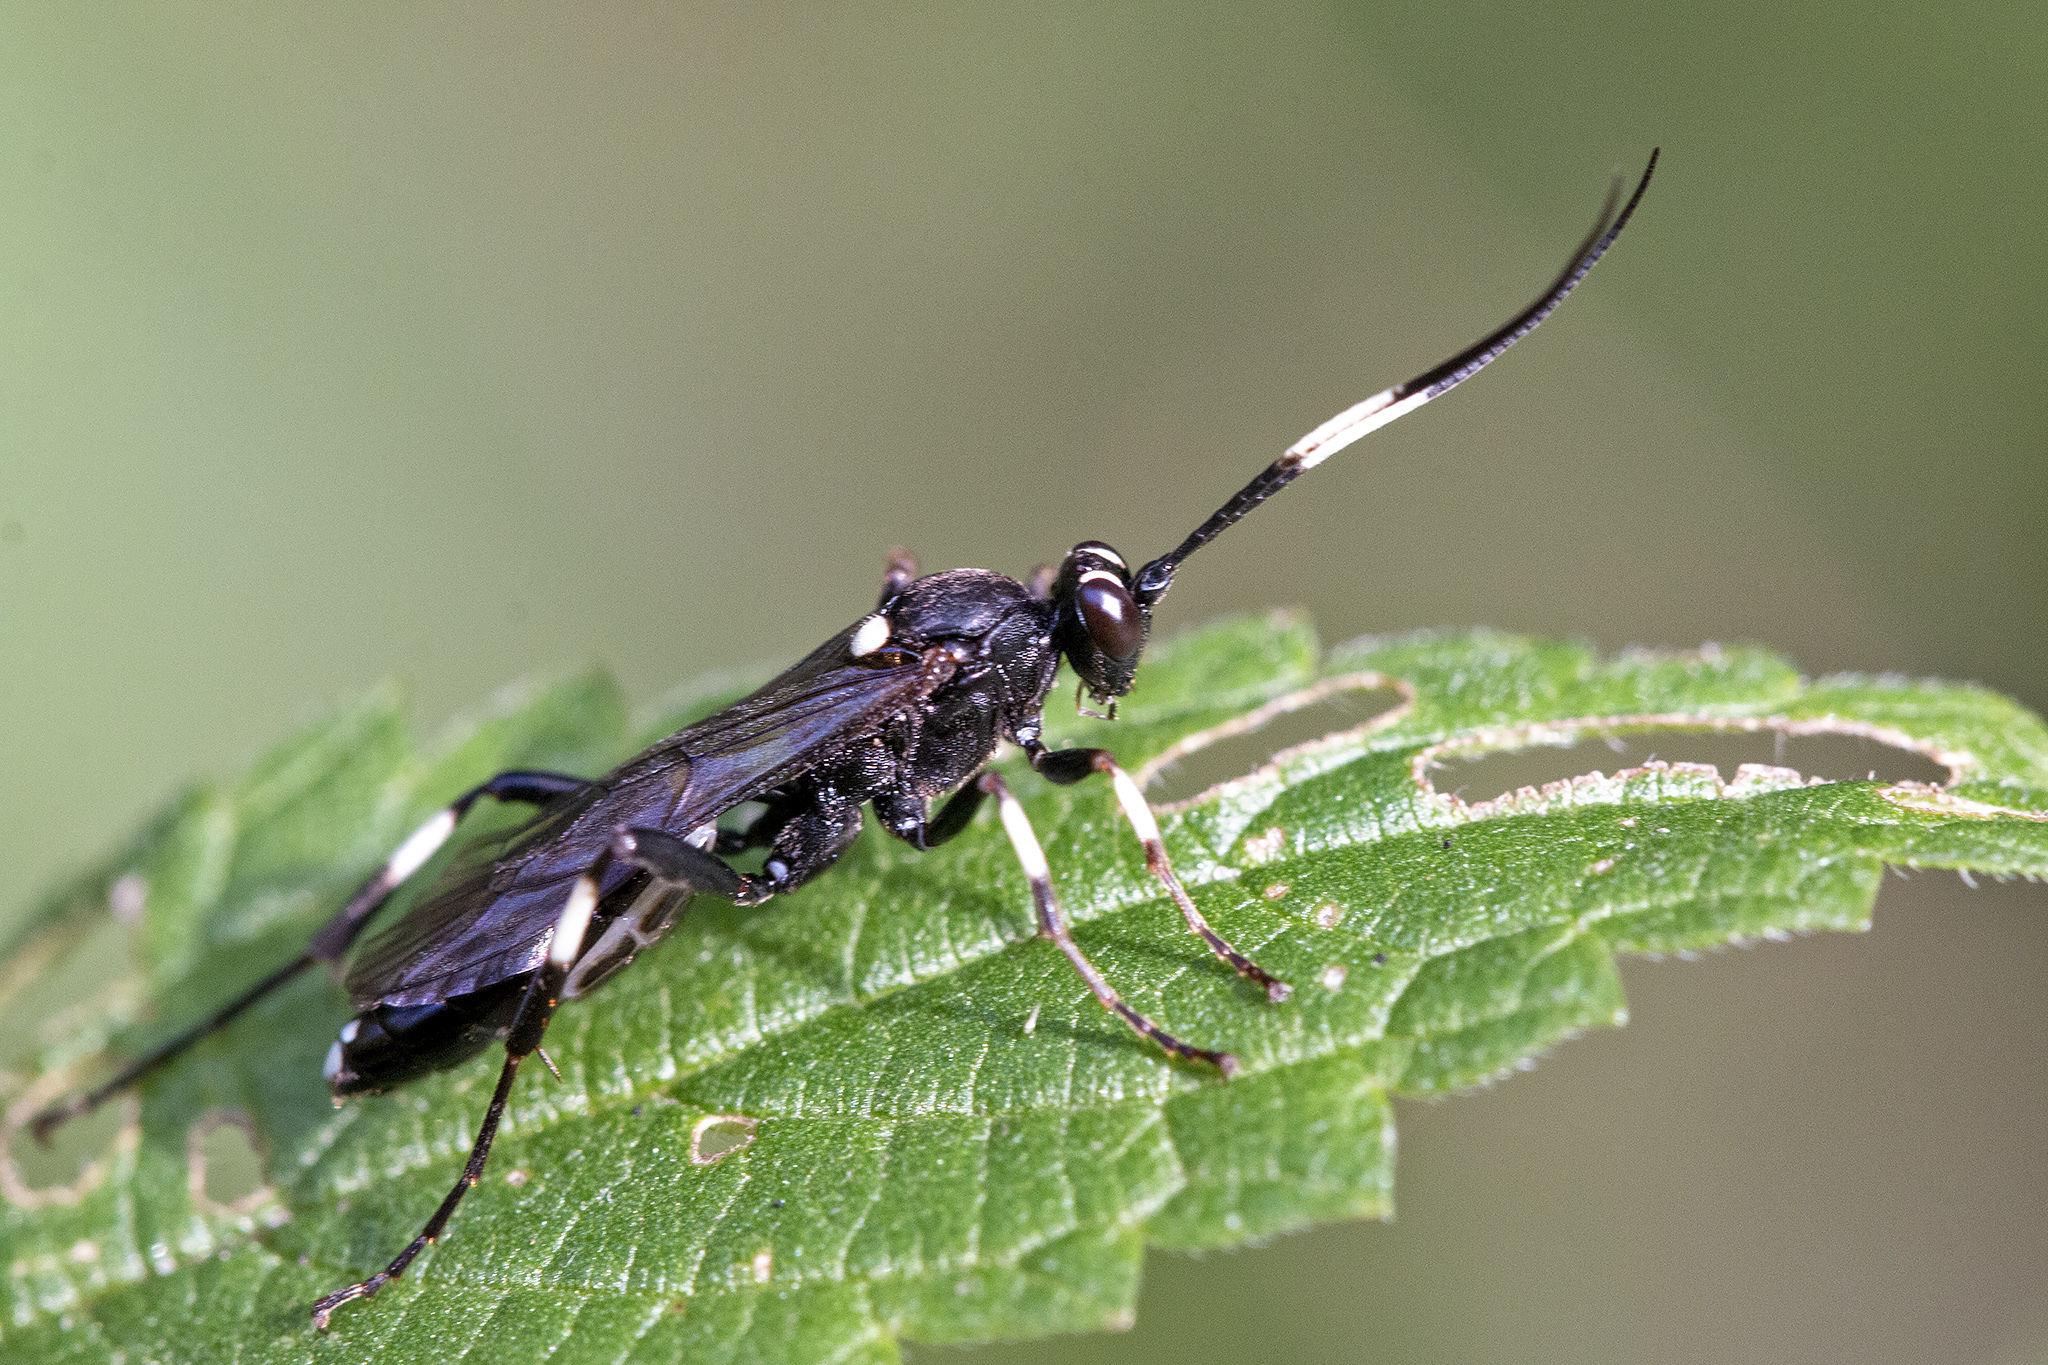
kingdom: Animalia
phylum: Arthropoda
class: Insecta
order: Hymenoptera
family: Ichneumonidae
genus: Achaius
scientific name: Achaius oratorius
